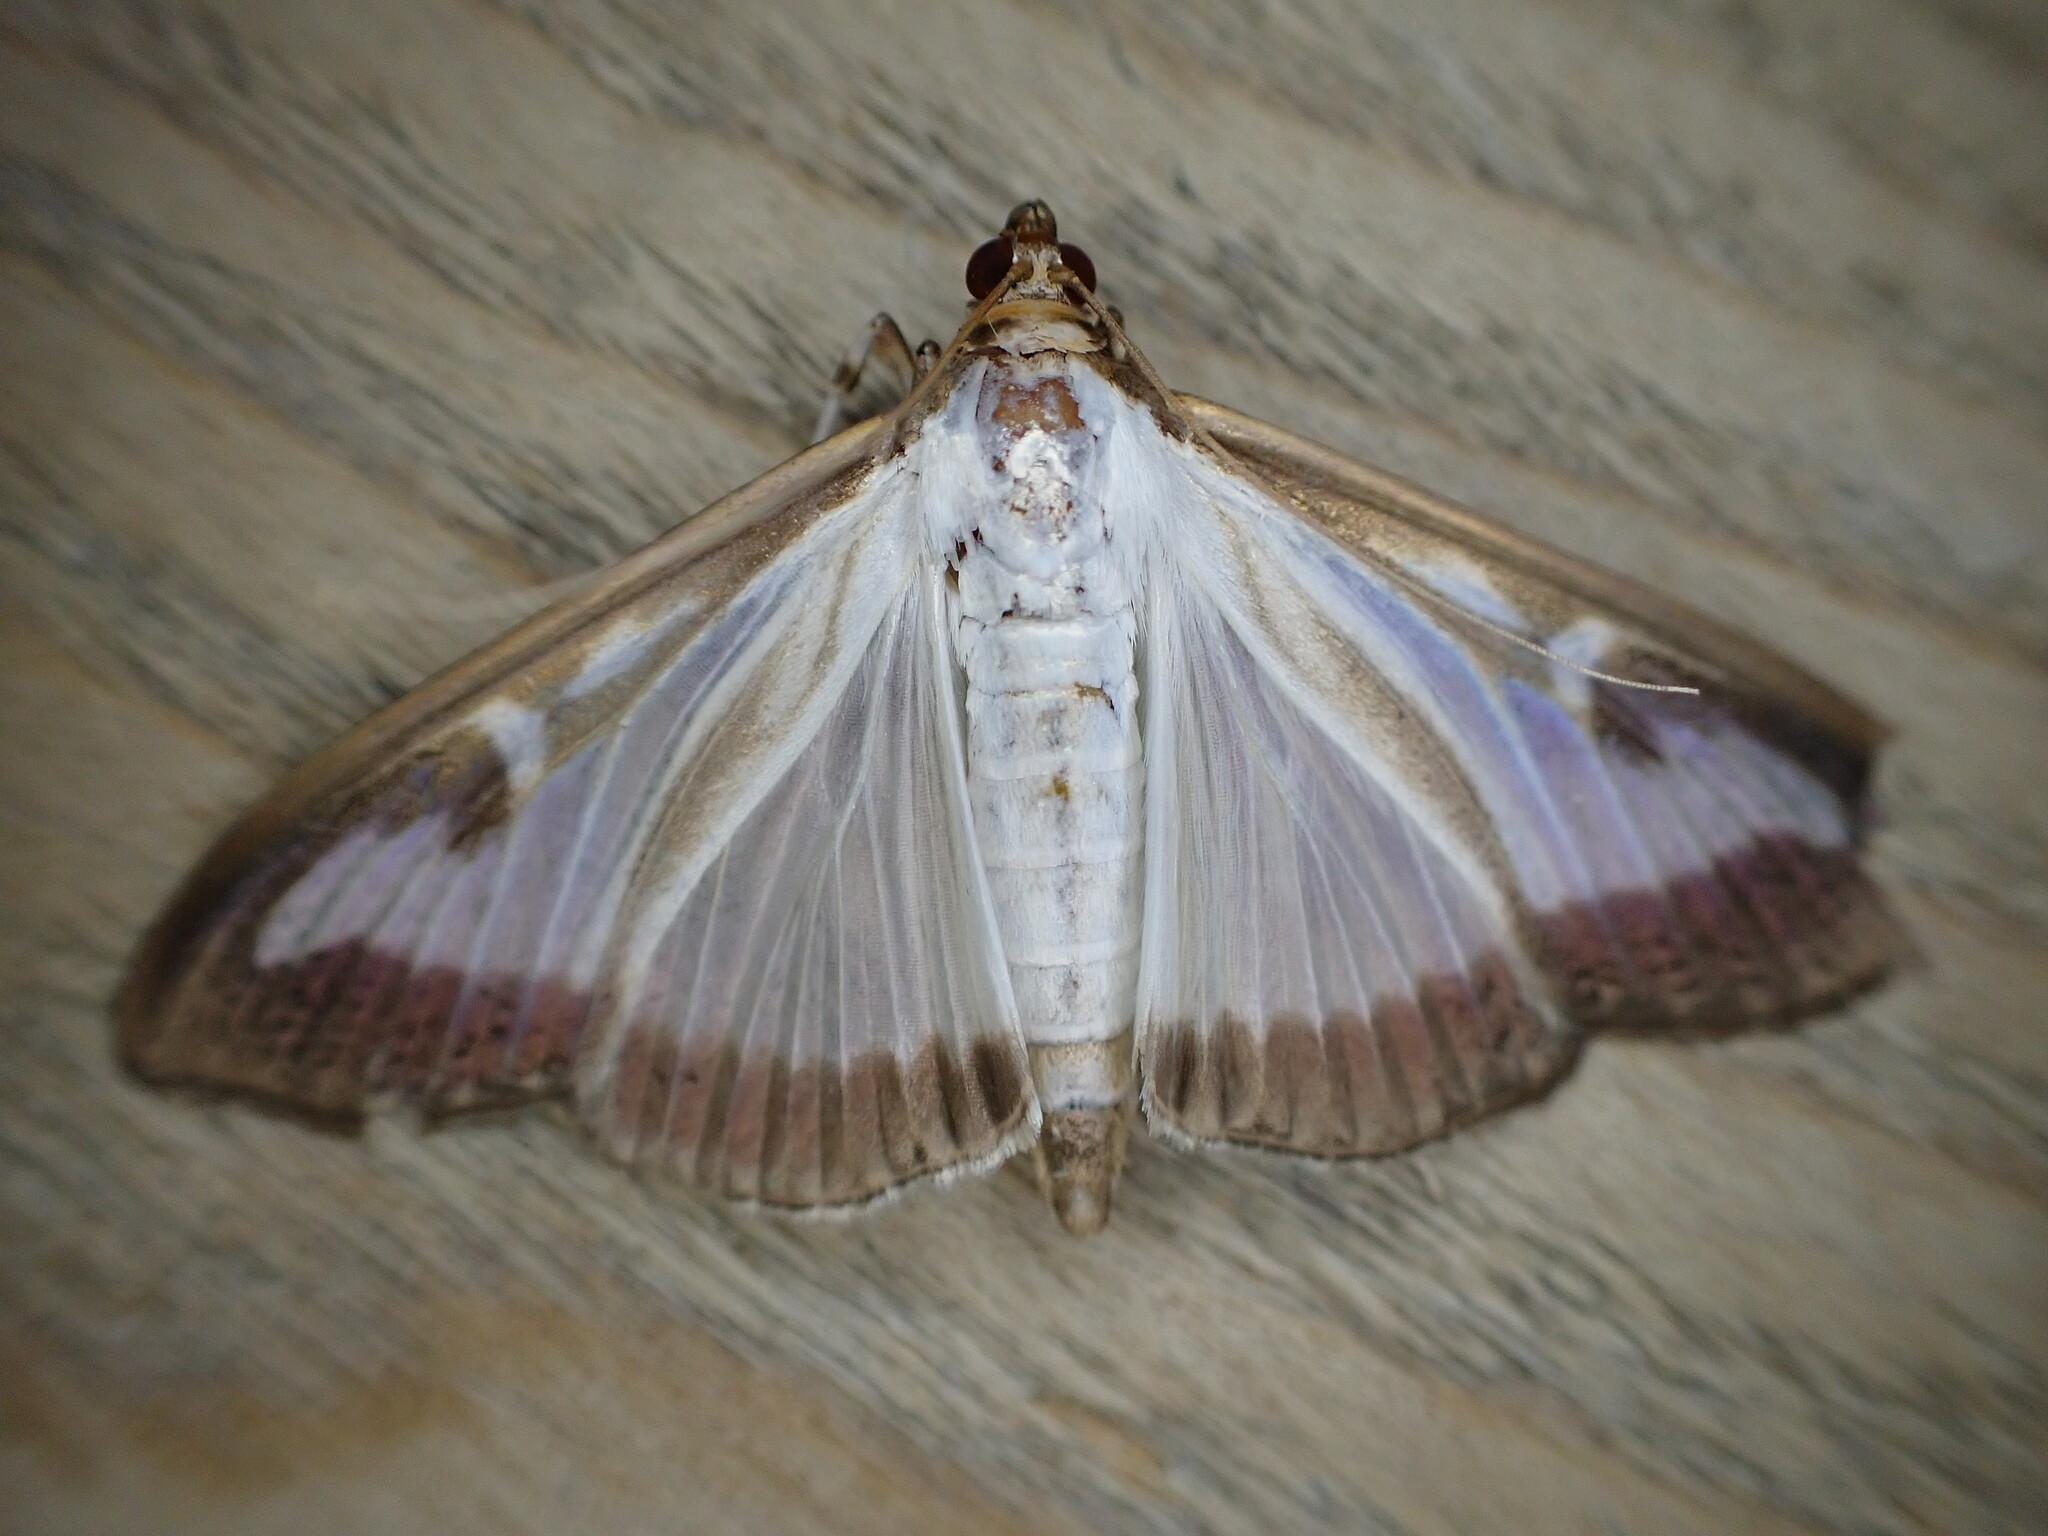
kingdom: Animalia
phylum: Arthropoda
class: Insecta
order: Lepidoptera
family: Crambidae
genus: Cydalima
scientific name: Cydalima perspectalis
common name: Box tree moth
